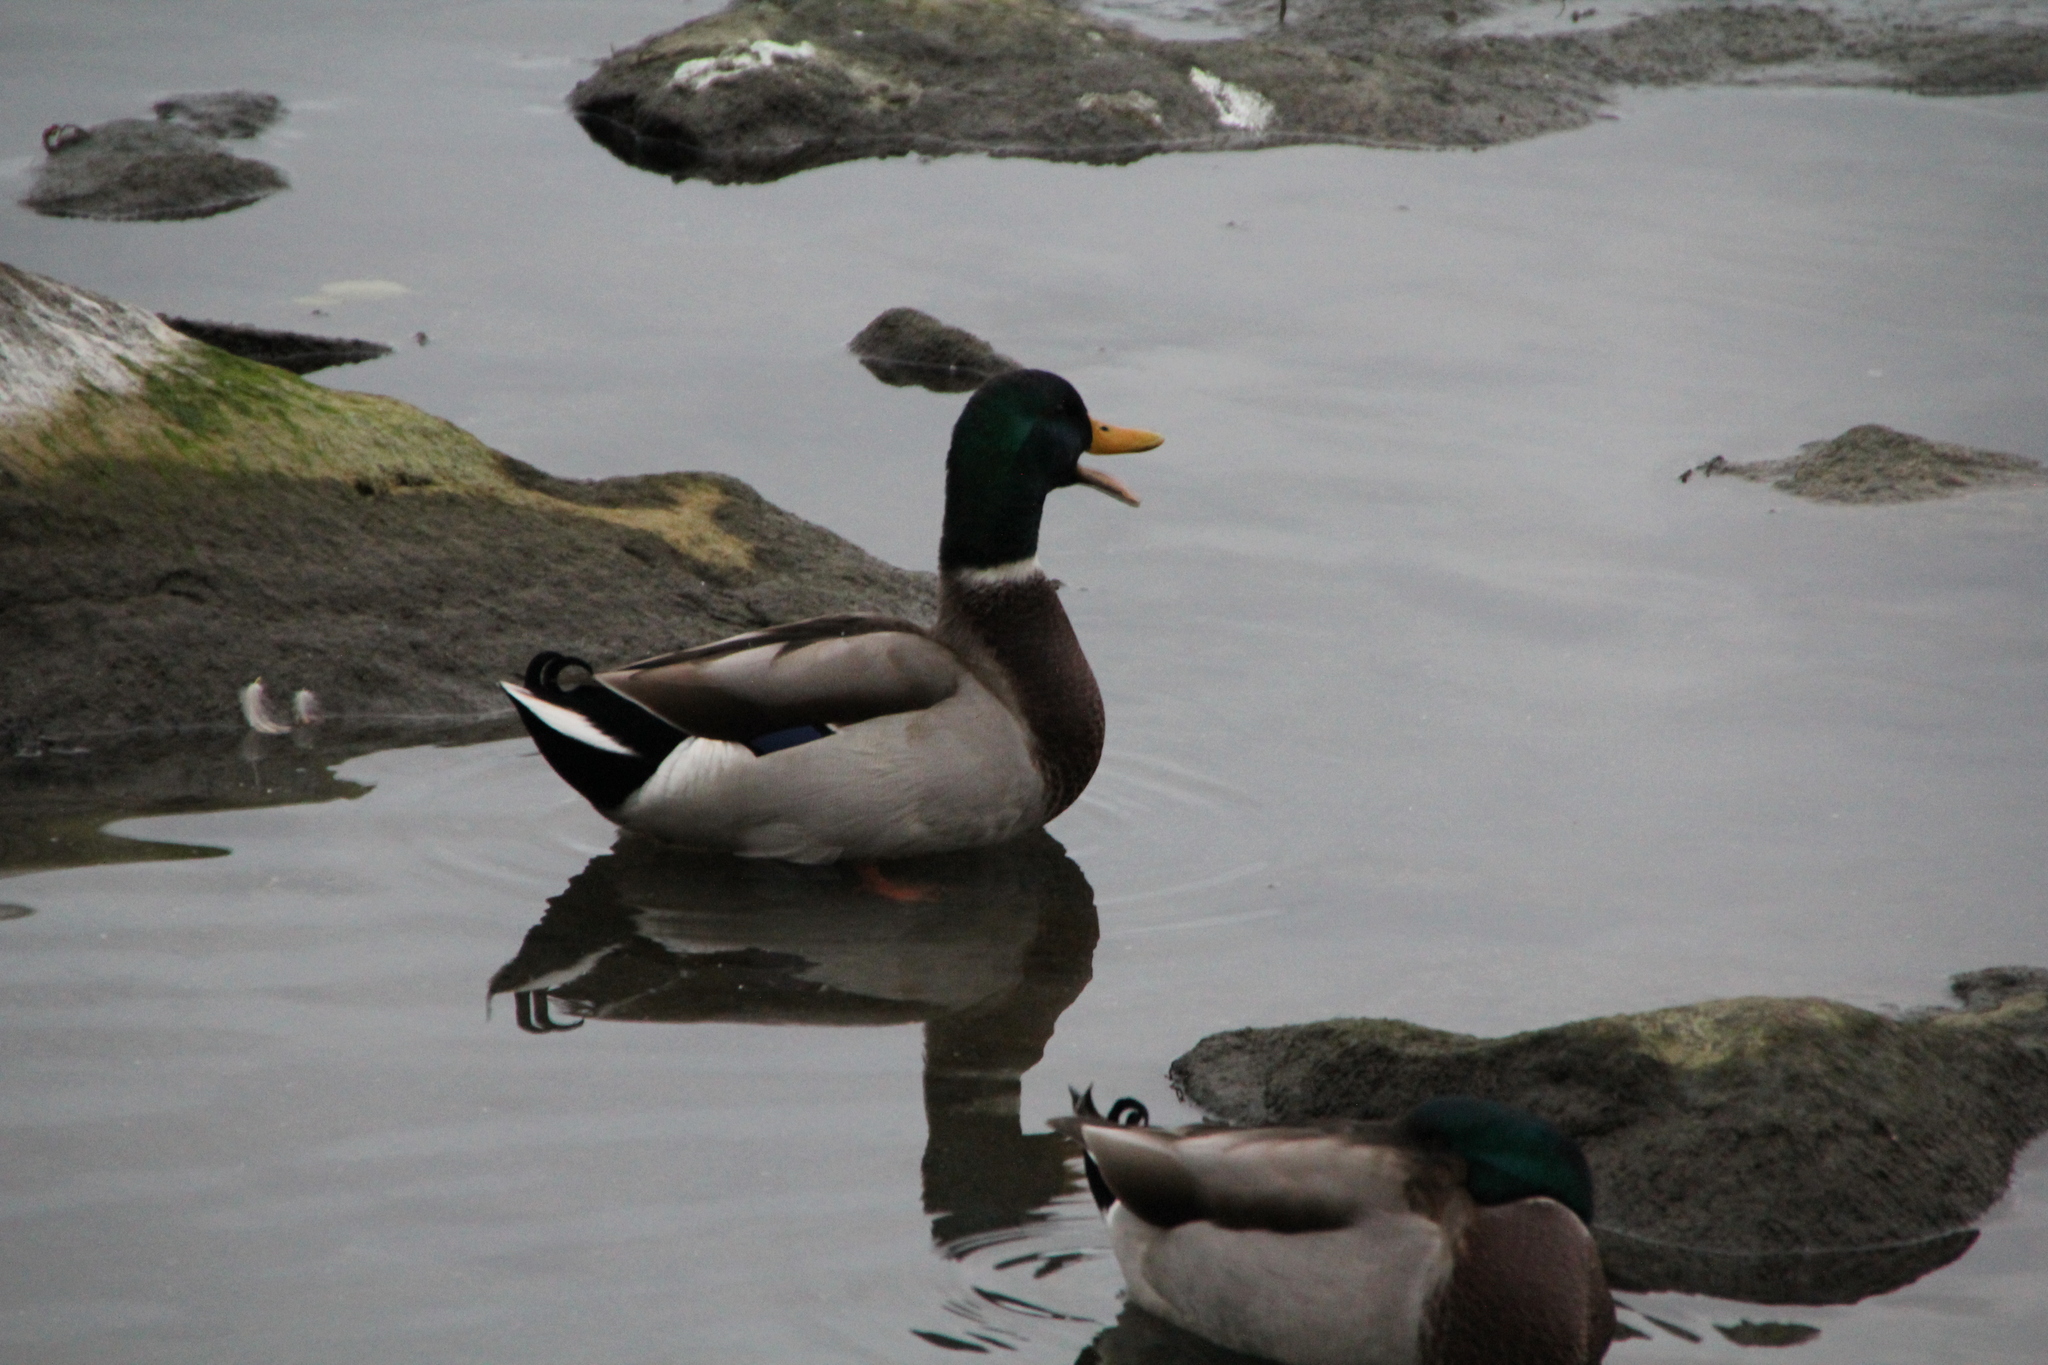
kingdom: Animalia
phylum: Chordata
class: Aves
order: Anseriformes
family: Anatidae
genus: Anas
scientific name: Anas platyrhynchos
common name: Mallard
